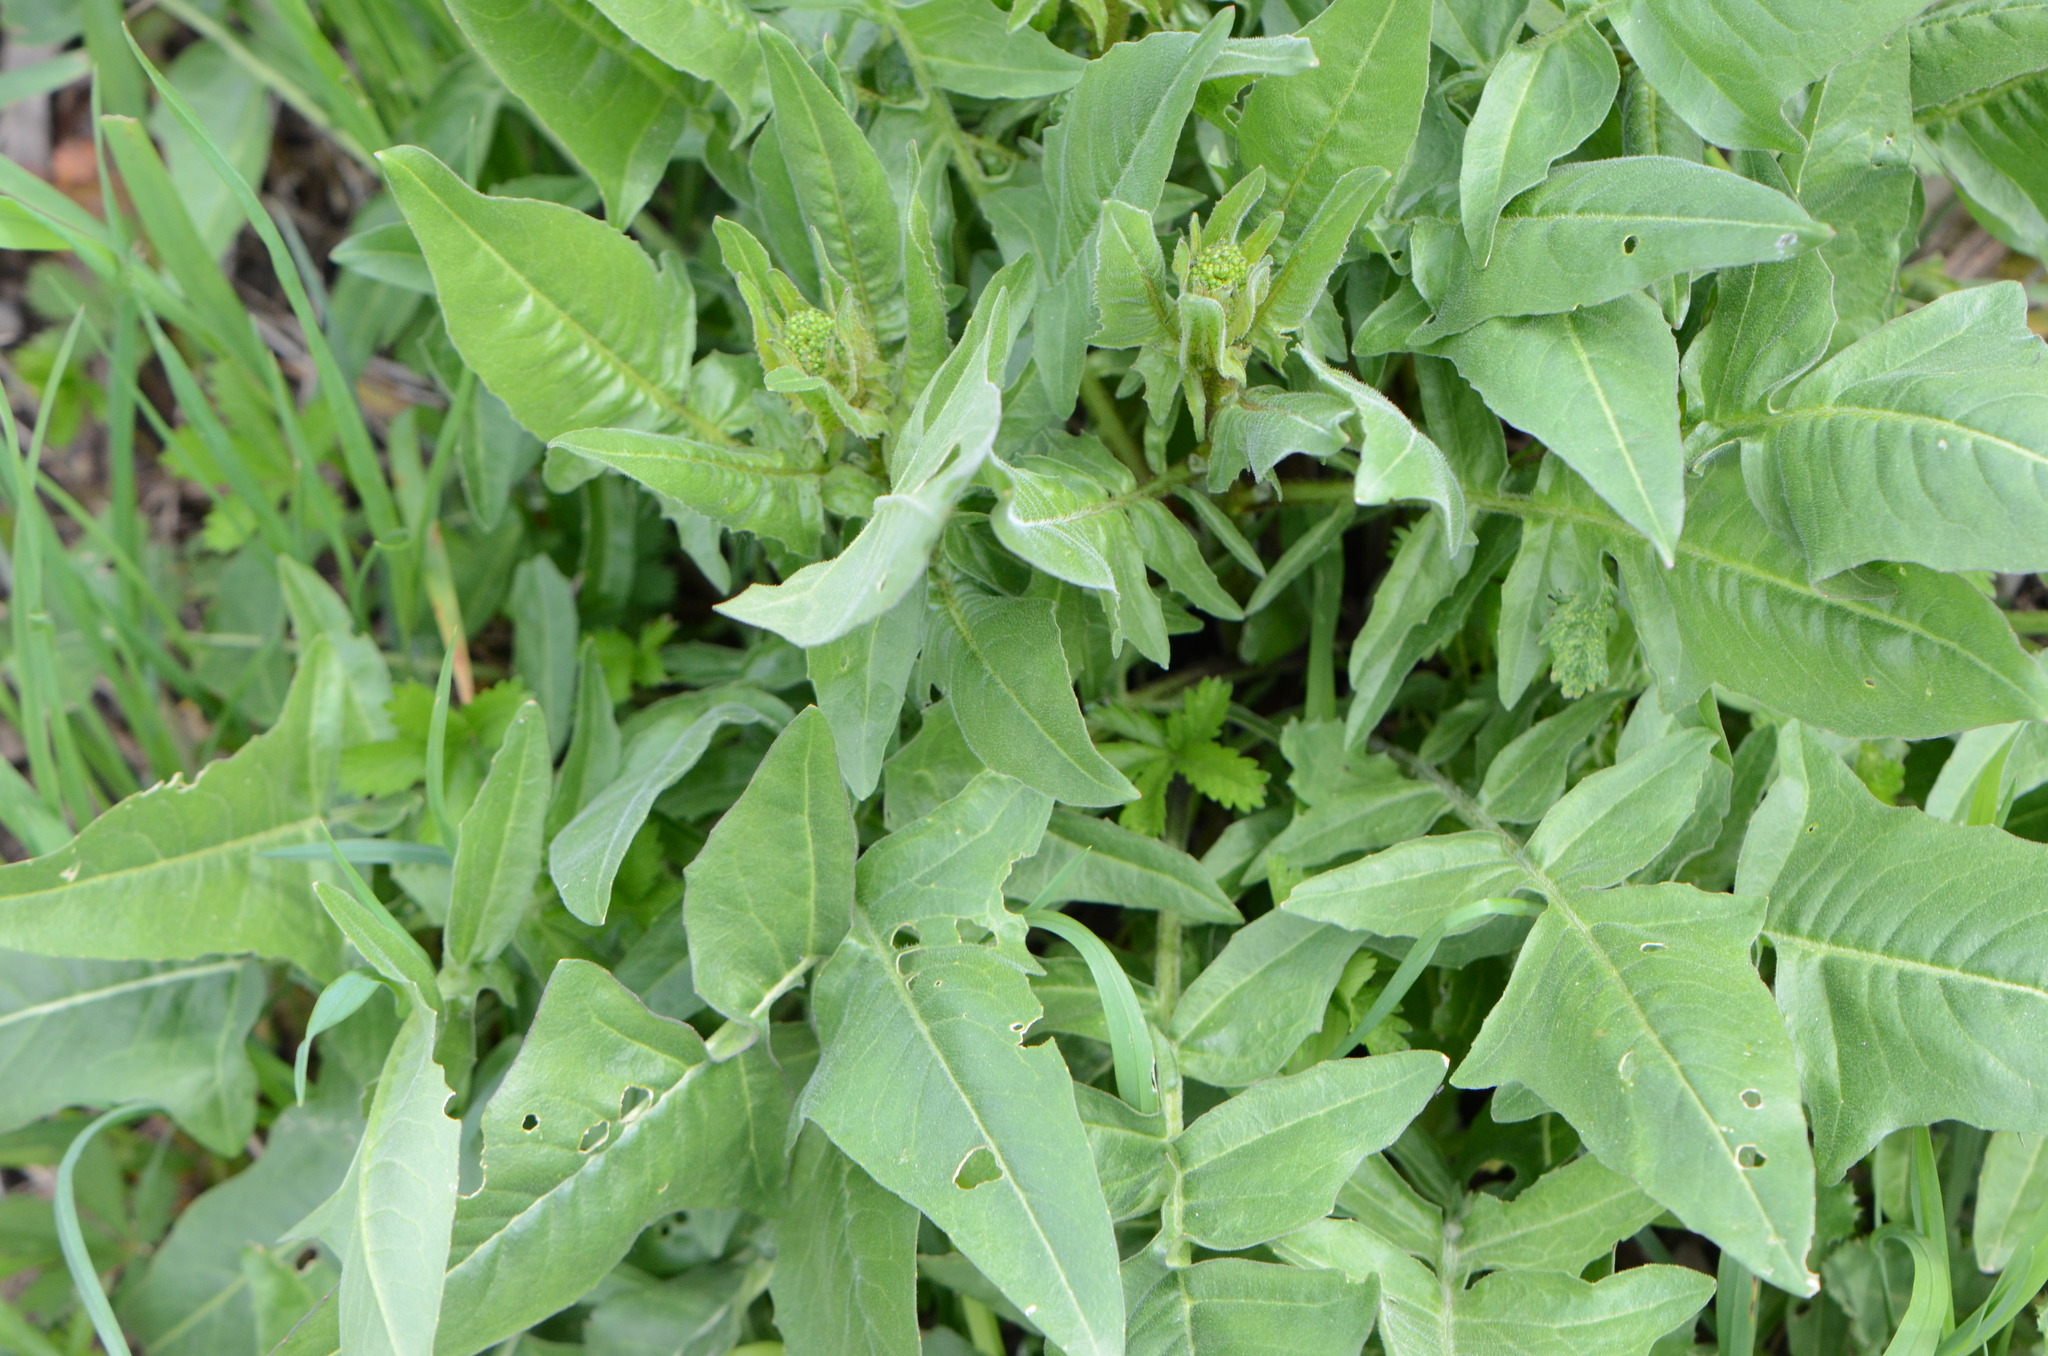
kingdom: Plantae
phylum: Tracheophyta
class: Magnoliopsida
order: Brassicales
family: Brassicaceae
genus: Bunias
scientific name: Bunias orientalis
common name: Warty-cabbage
